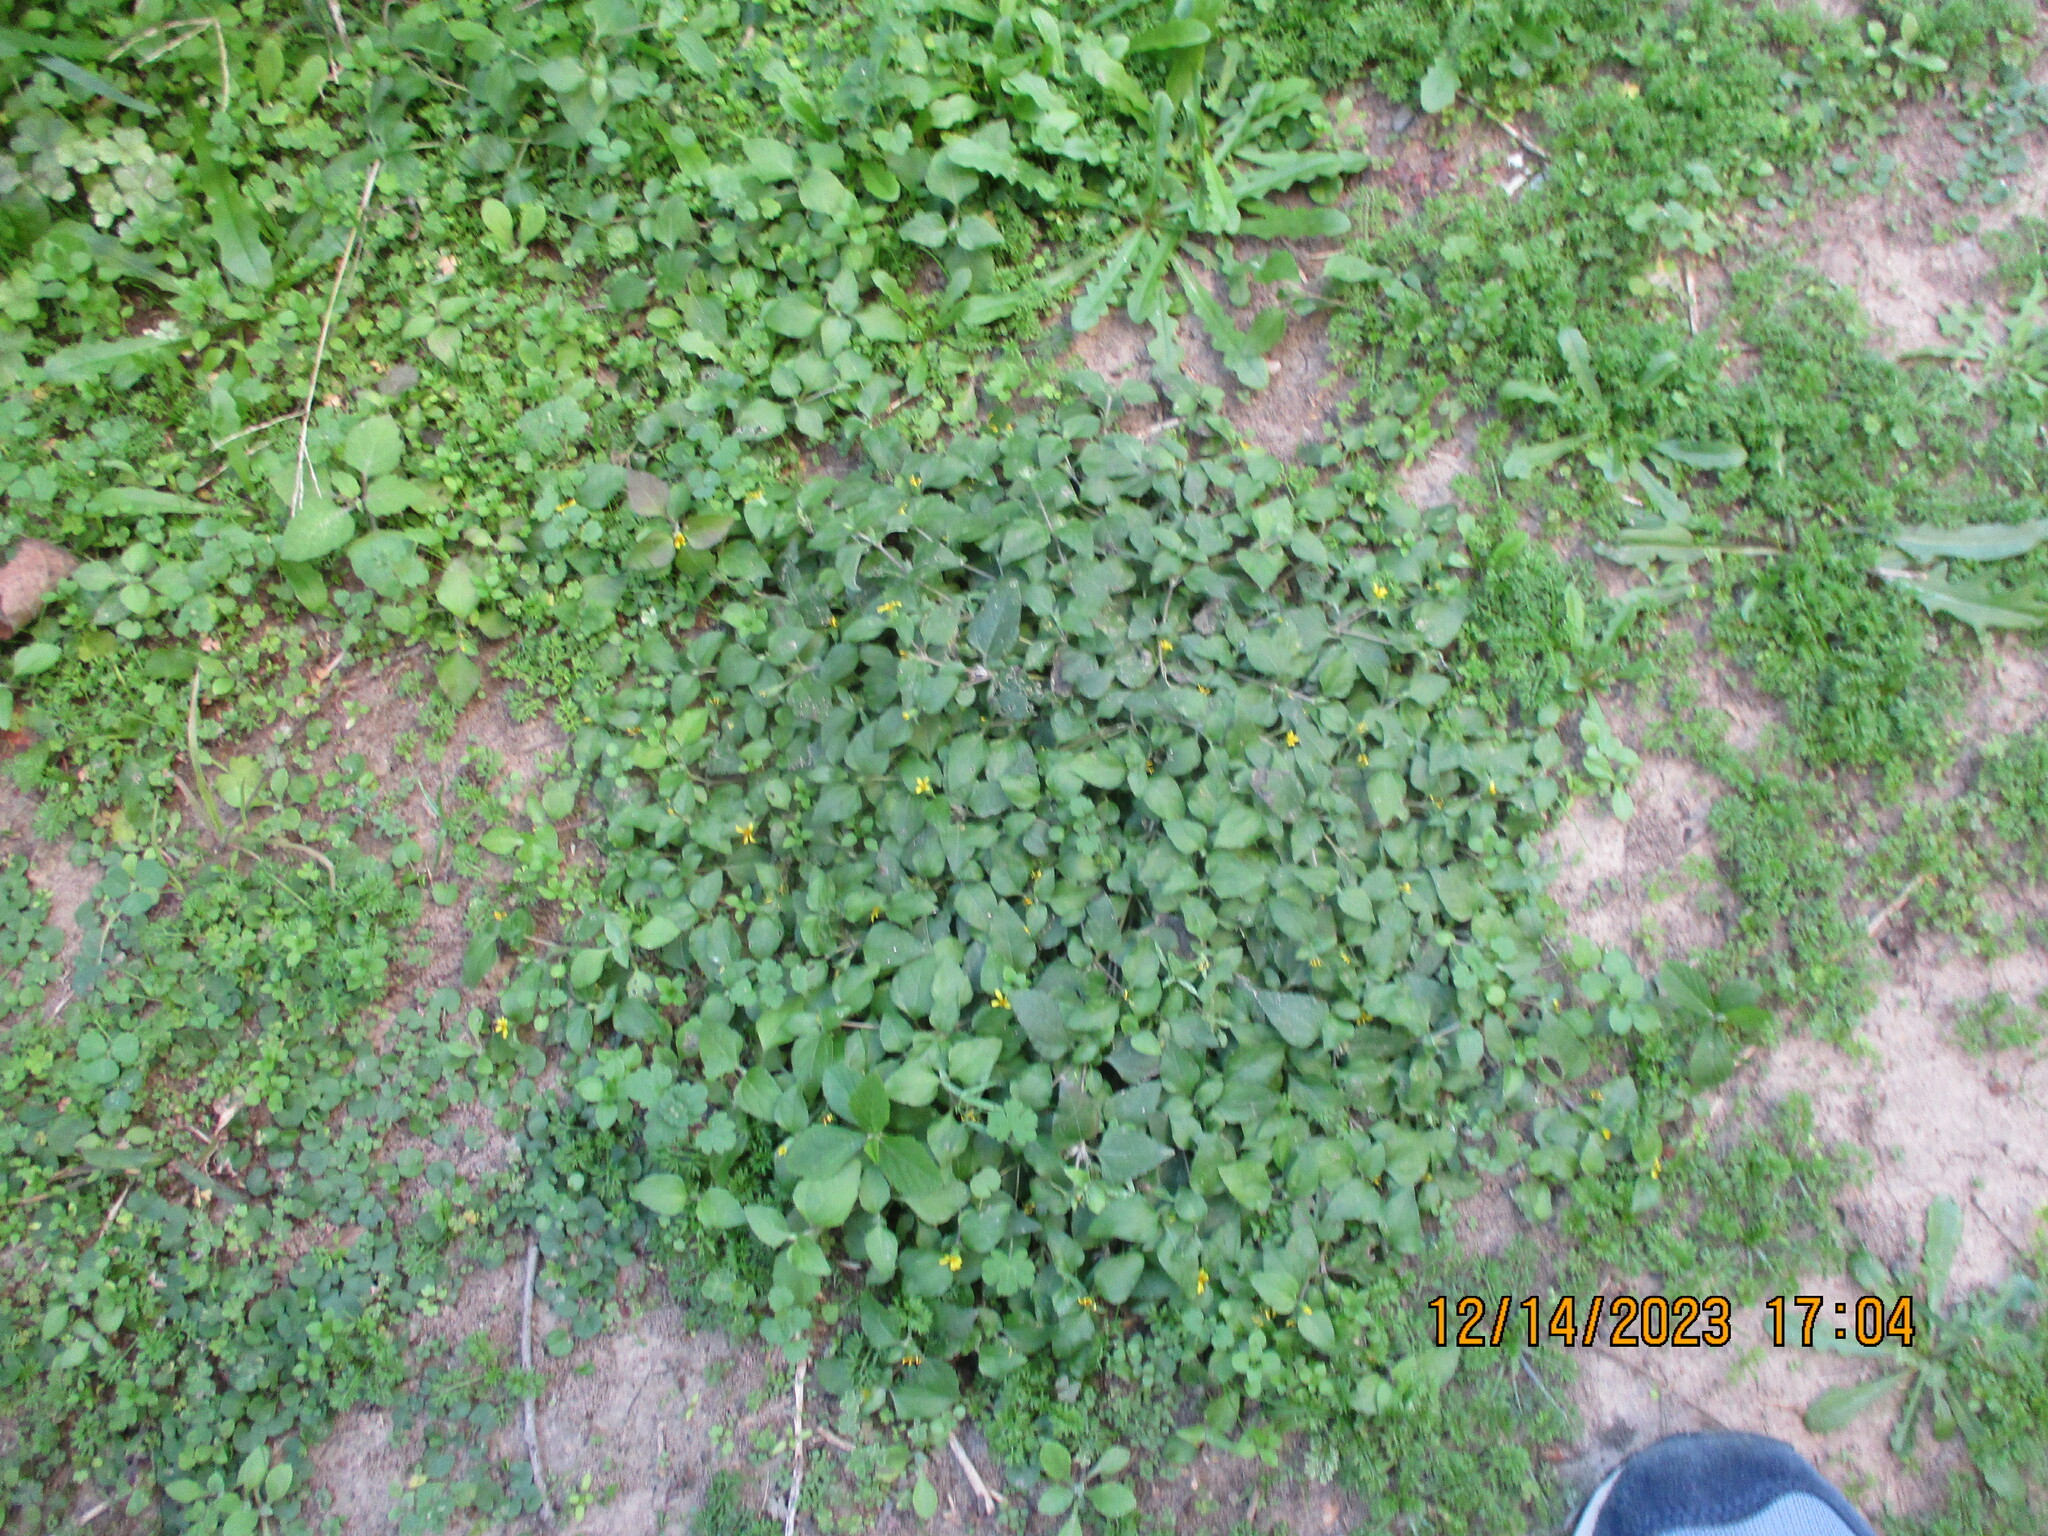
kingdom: Plantae
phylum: Tracheophyta
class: Magnoliopsida
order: Asterales
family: Asteraceae
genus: Calyptocarpus
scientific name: Calyptocarpus vialis
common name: Straggler daisy
